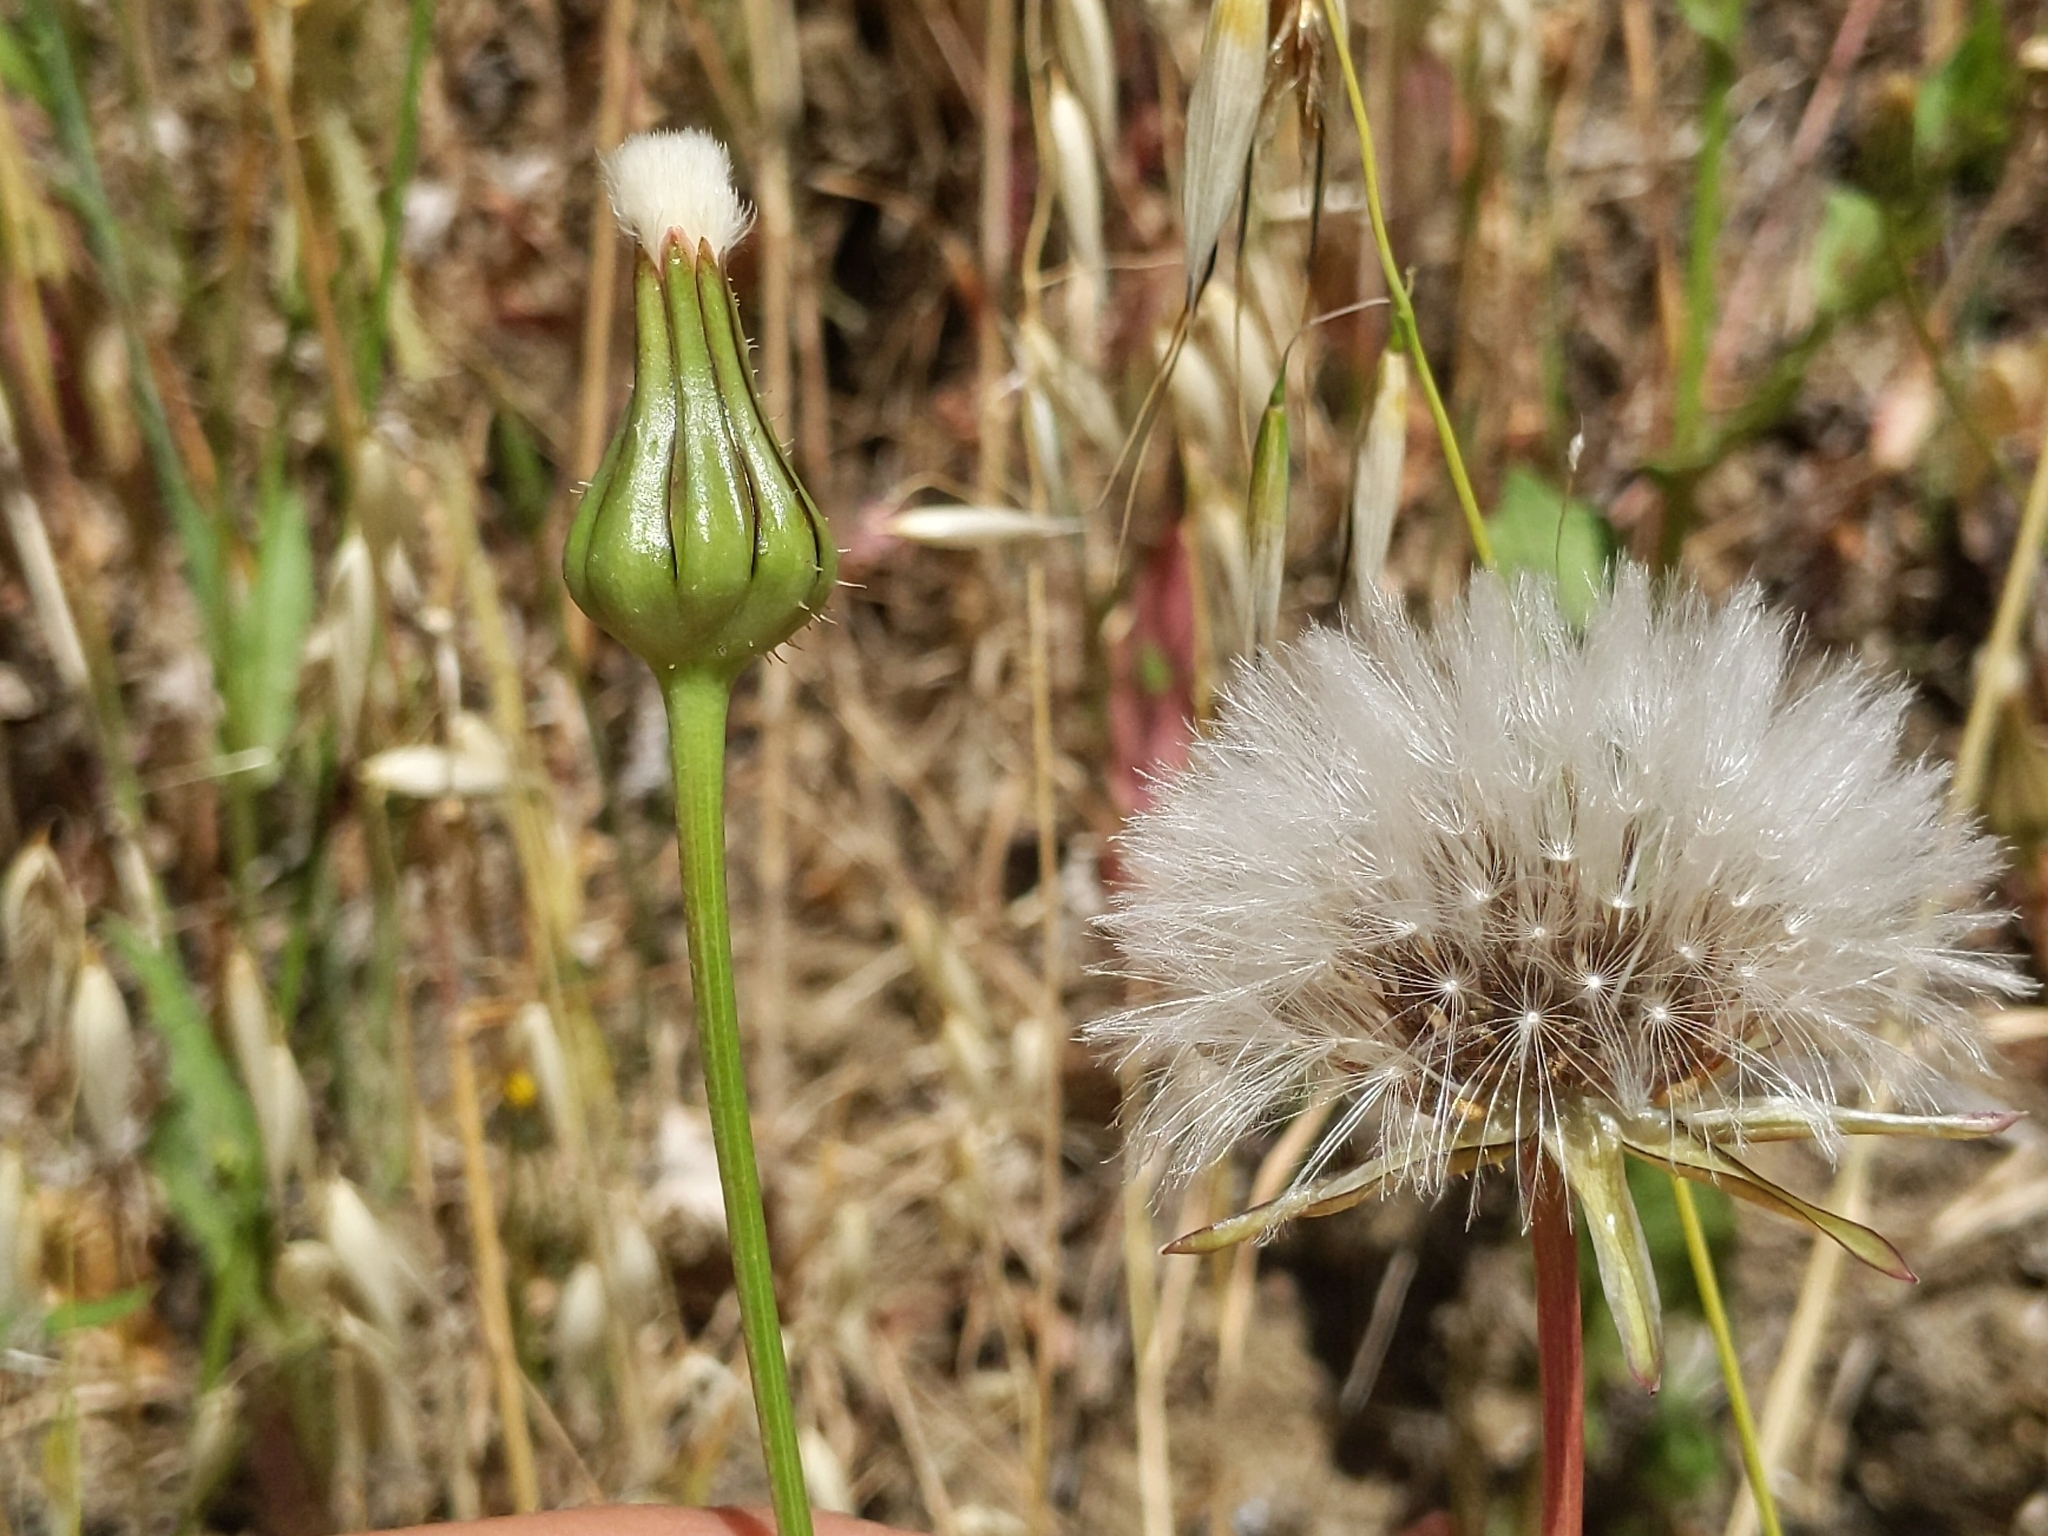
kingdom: Plantae
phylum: Tracheophyta
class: Magnoliopsida
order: Asterales
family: Asteraceae
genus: Urospermum
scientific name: Urospermum picroides
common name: False hawkbit
